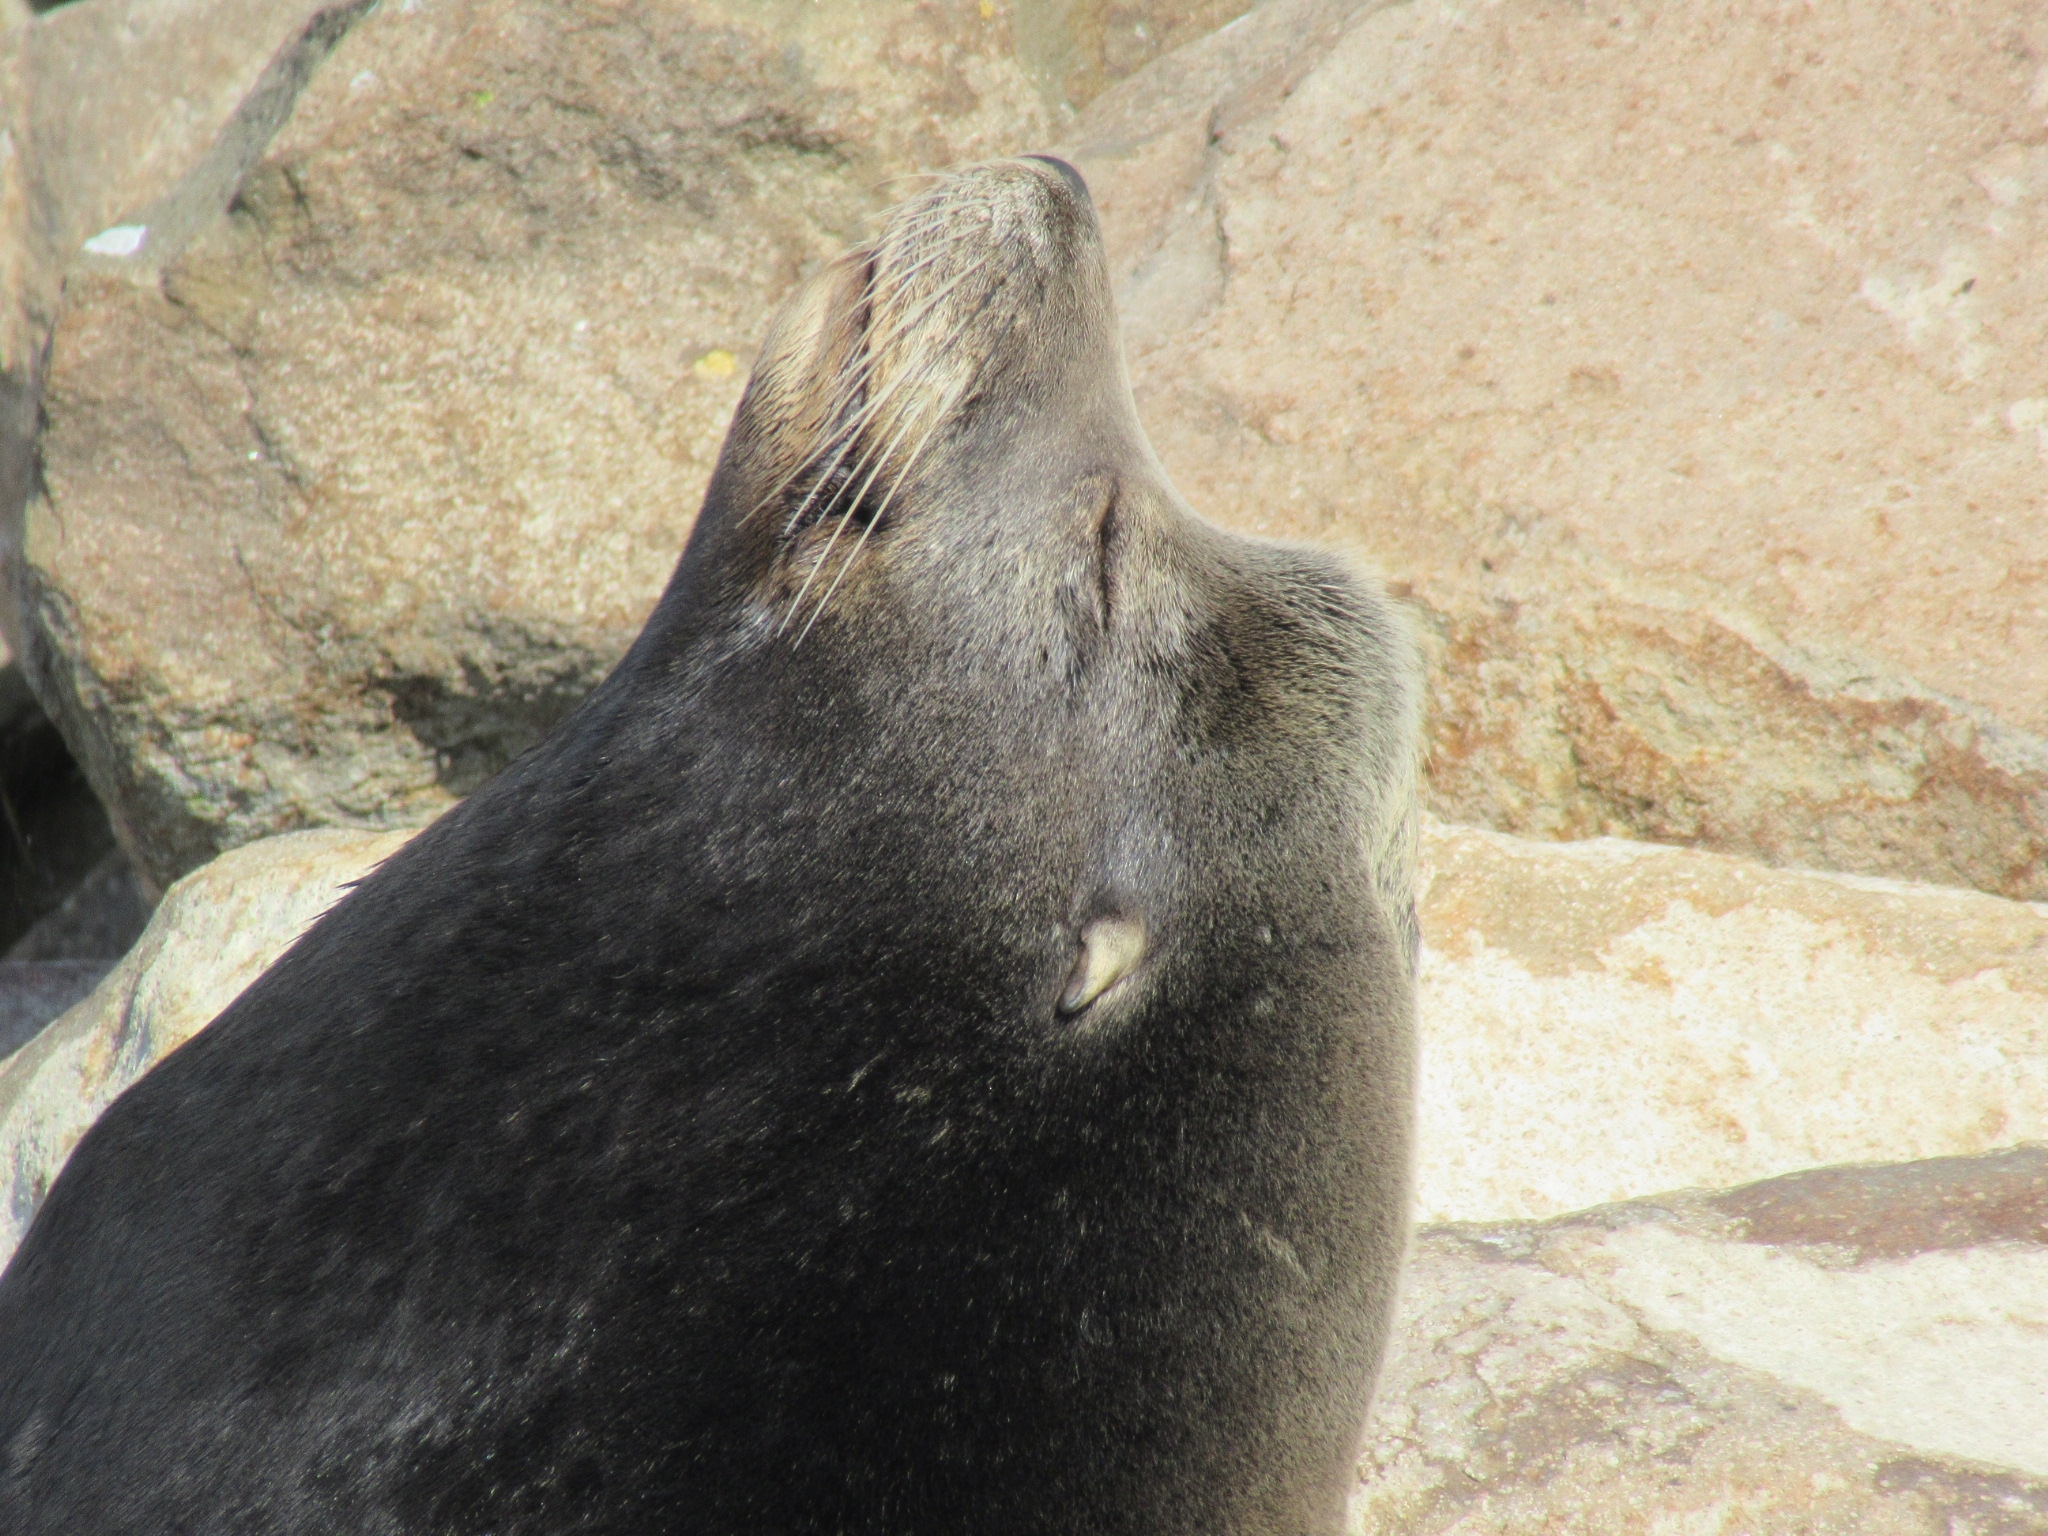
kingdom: Animalia
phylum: Chordata
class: Mammalia
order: Carnivora
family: Otariidae
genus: Zalophus
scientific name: Zalophus californianus
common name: California sea lion
